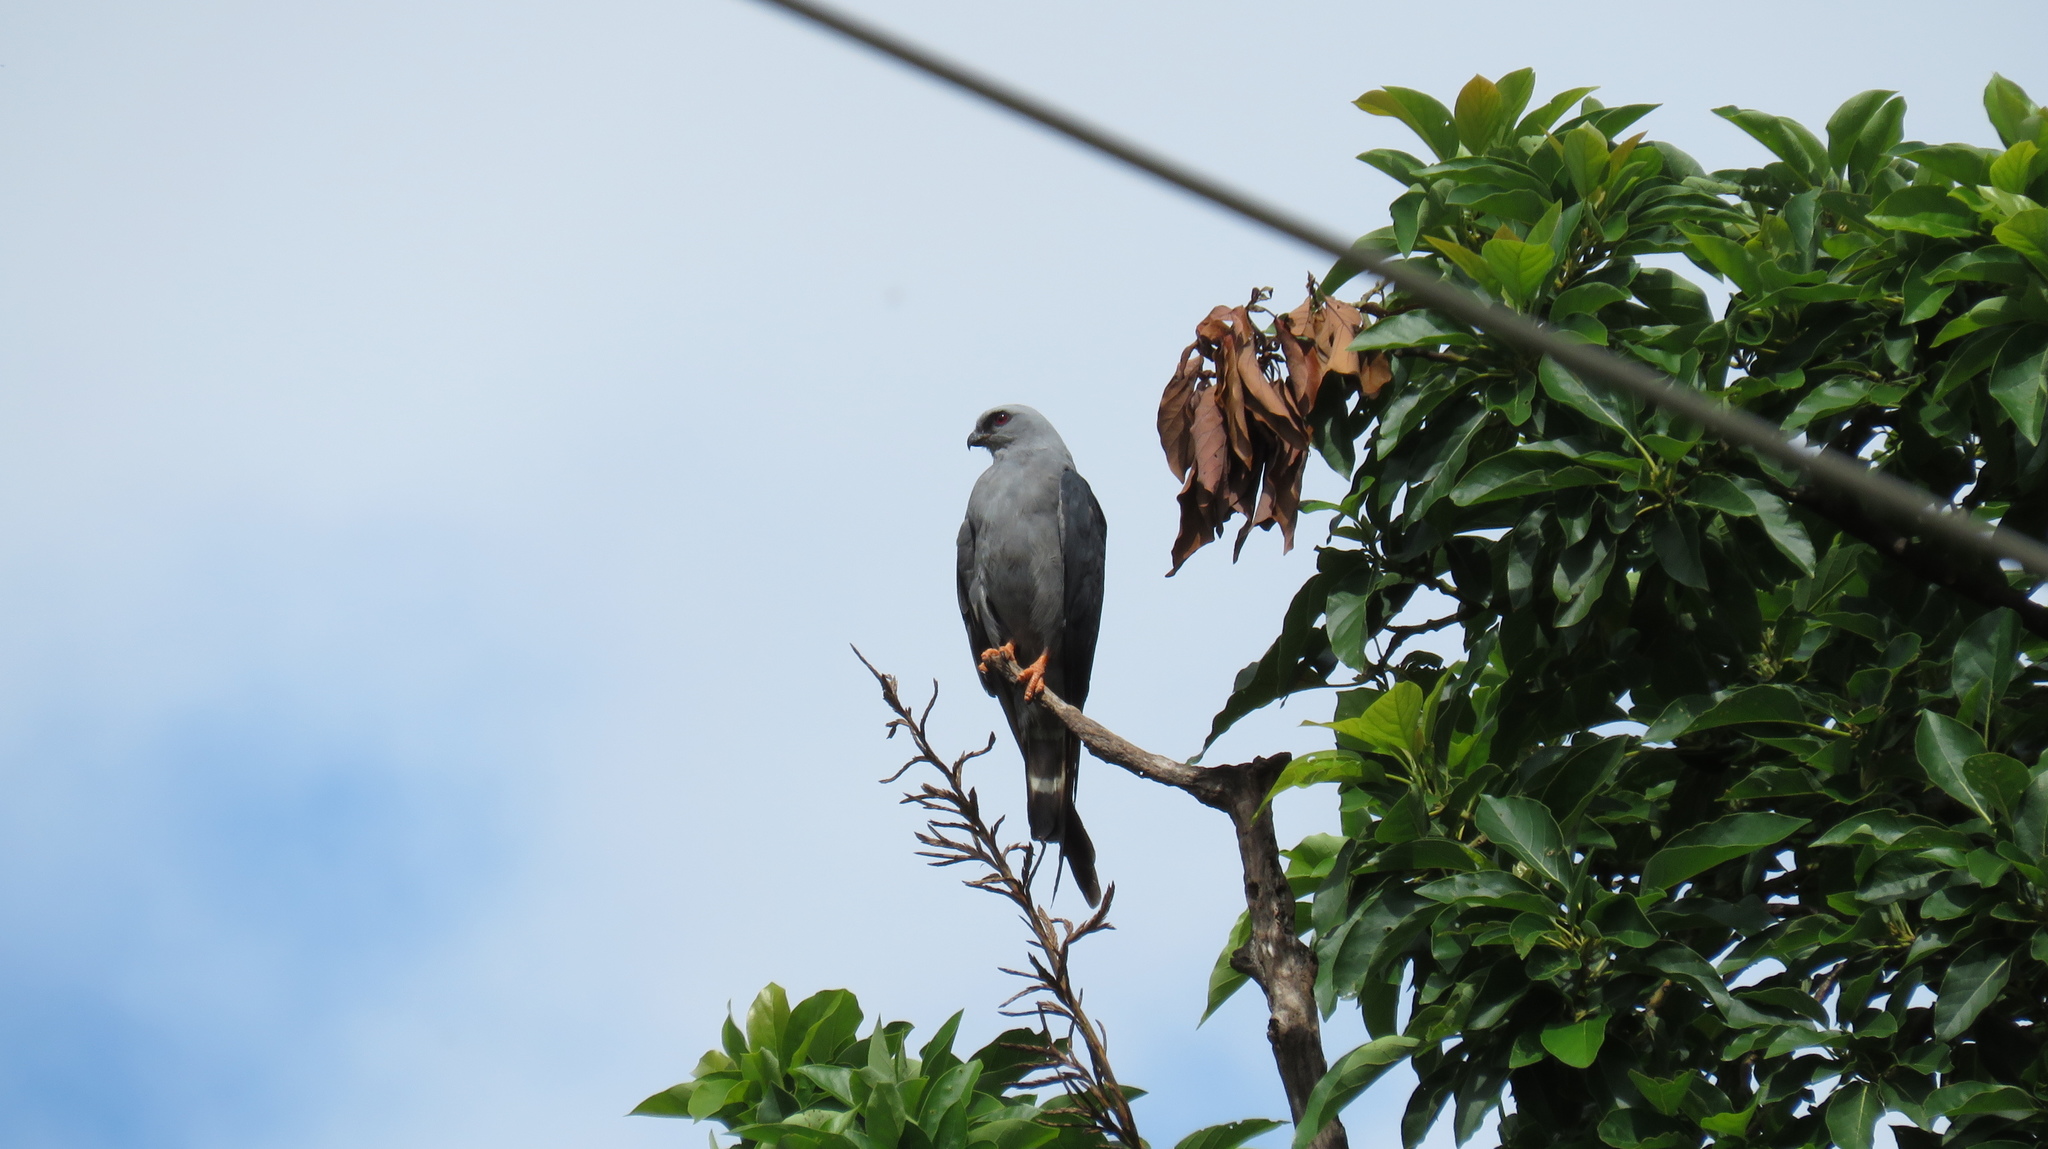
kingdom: Animalia
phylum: Chordata
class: Aves
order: Accipitriformes
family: Accipitridae
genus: Ictinia
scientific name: Ictinia plumbea
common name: Plumbeous kite
